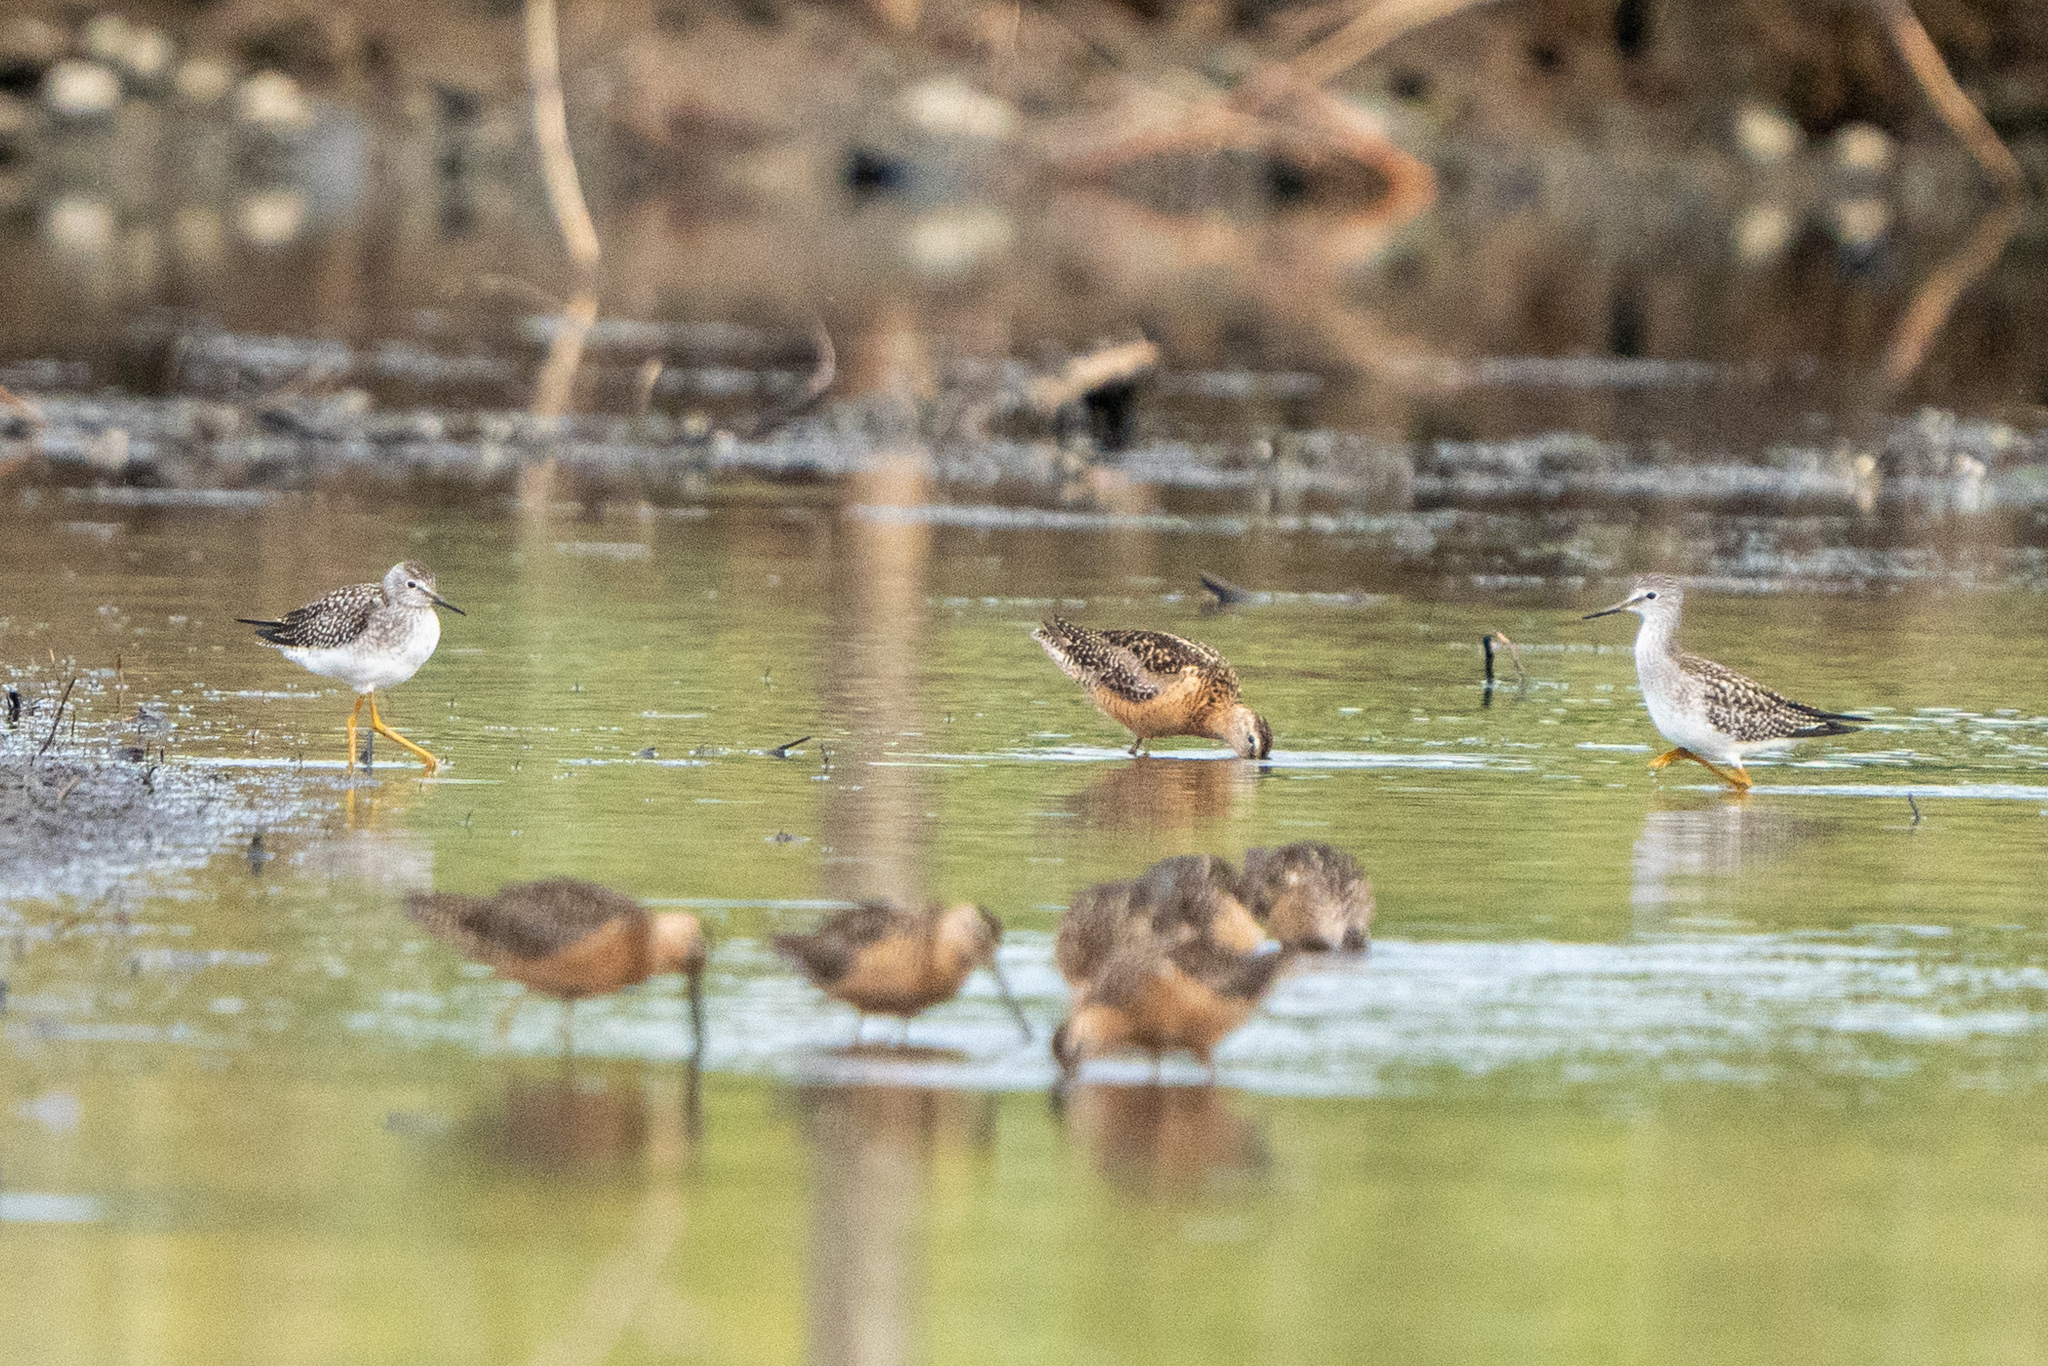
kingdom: Animalia
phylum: Chordata
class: Aves
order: Charadriiformes
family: Scolopacidae
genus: Tringa
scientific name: Tringa flavipes
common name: Lesser yellowlegs
